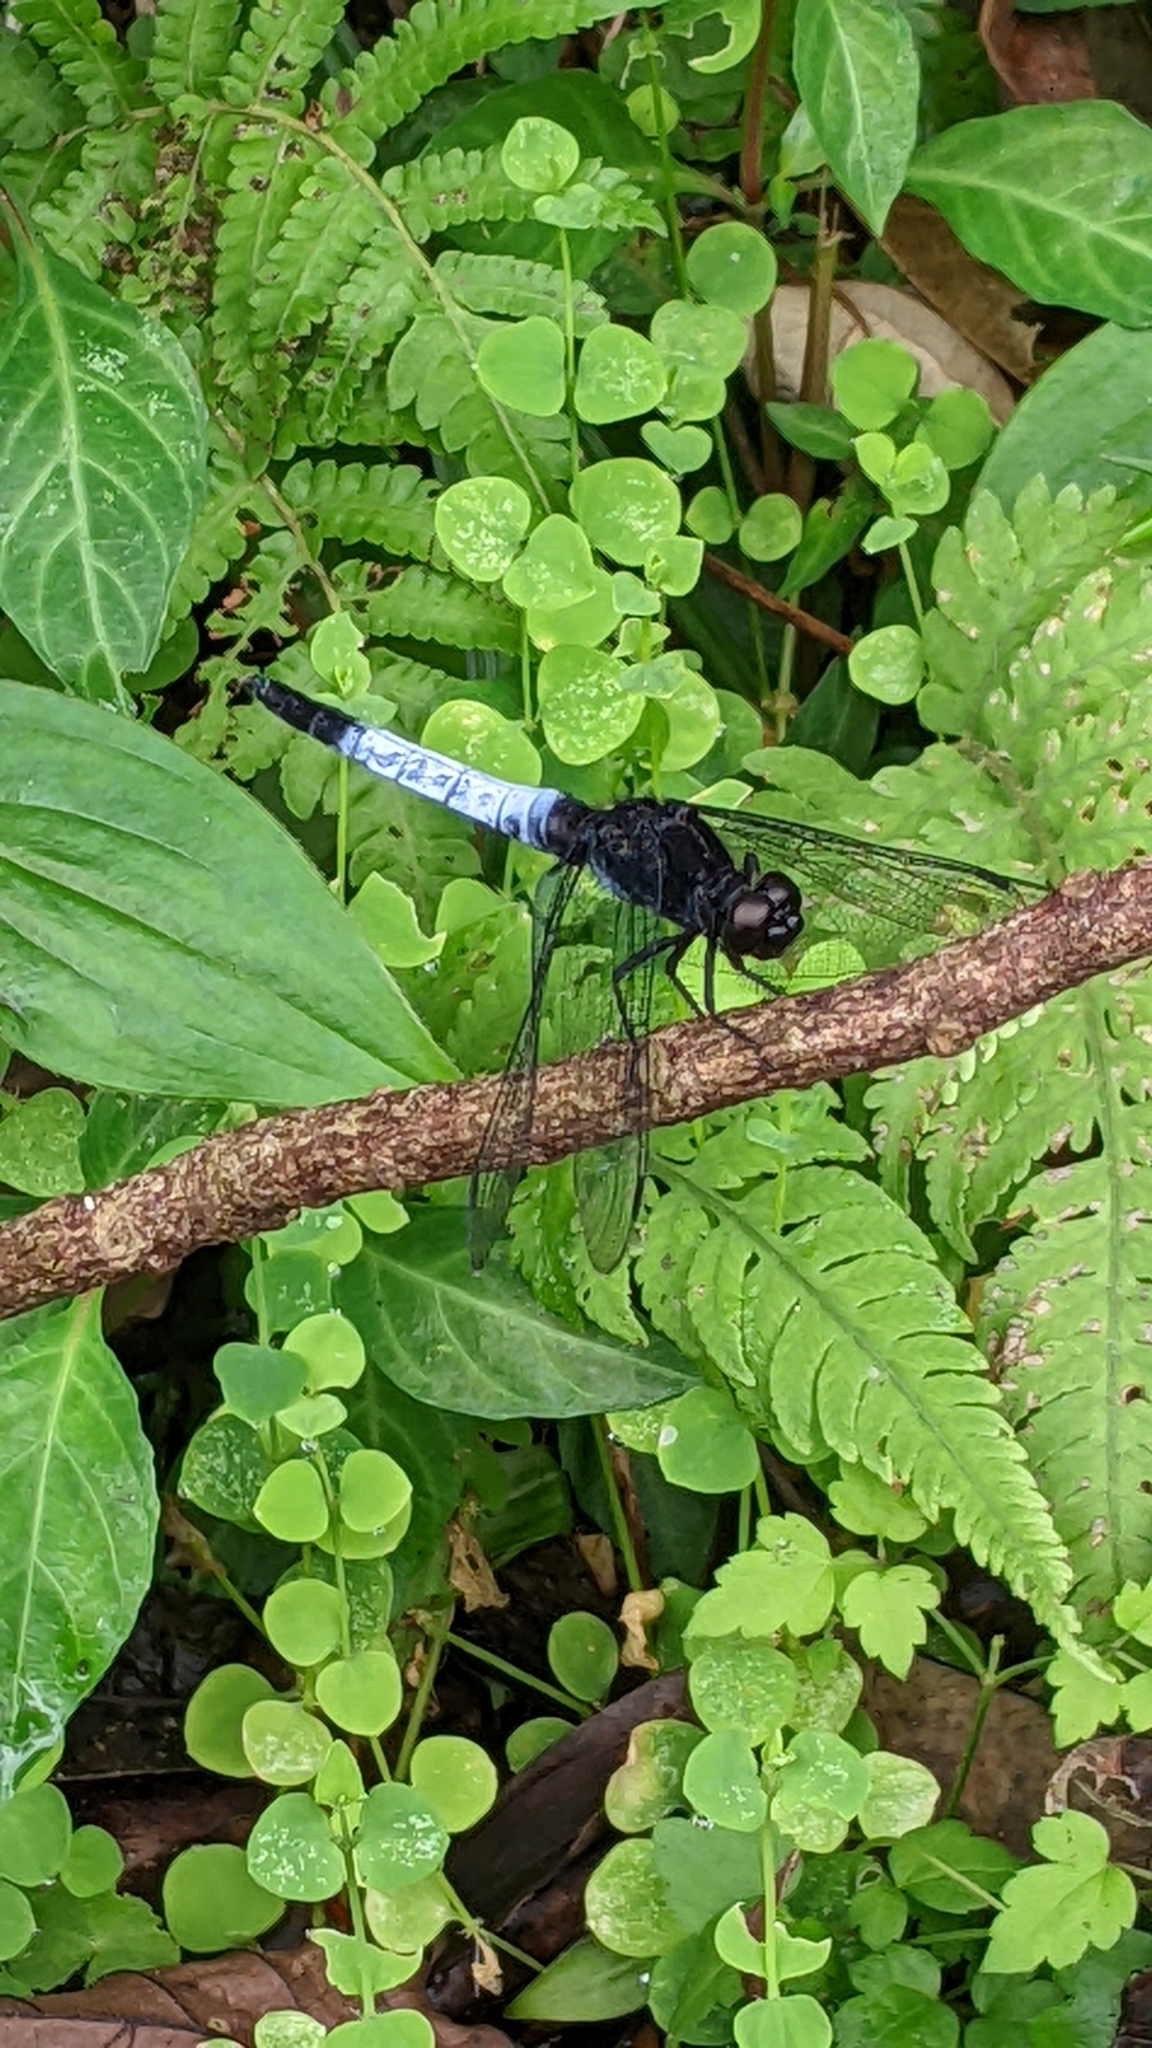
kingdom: Animalia
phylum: Arthropoda
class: Insecta
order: Odonata
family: Libellulidae
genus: Orthetrum
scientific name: Orthetrum triangulare
